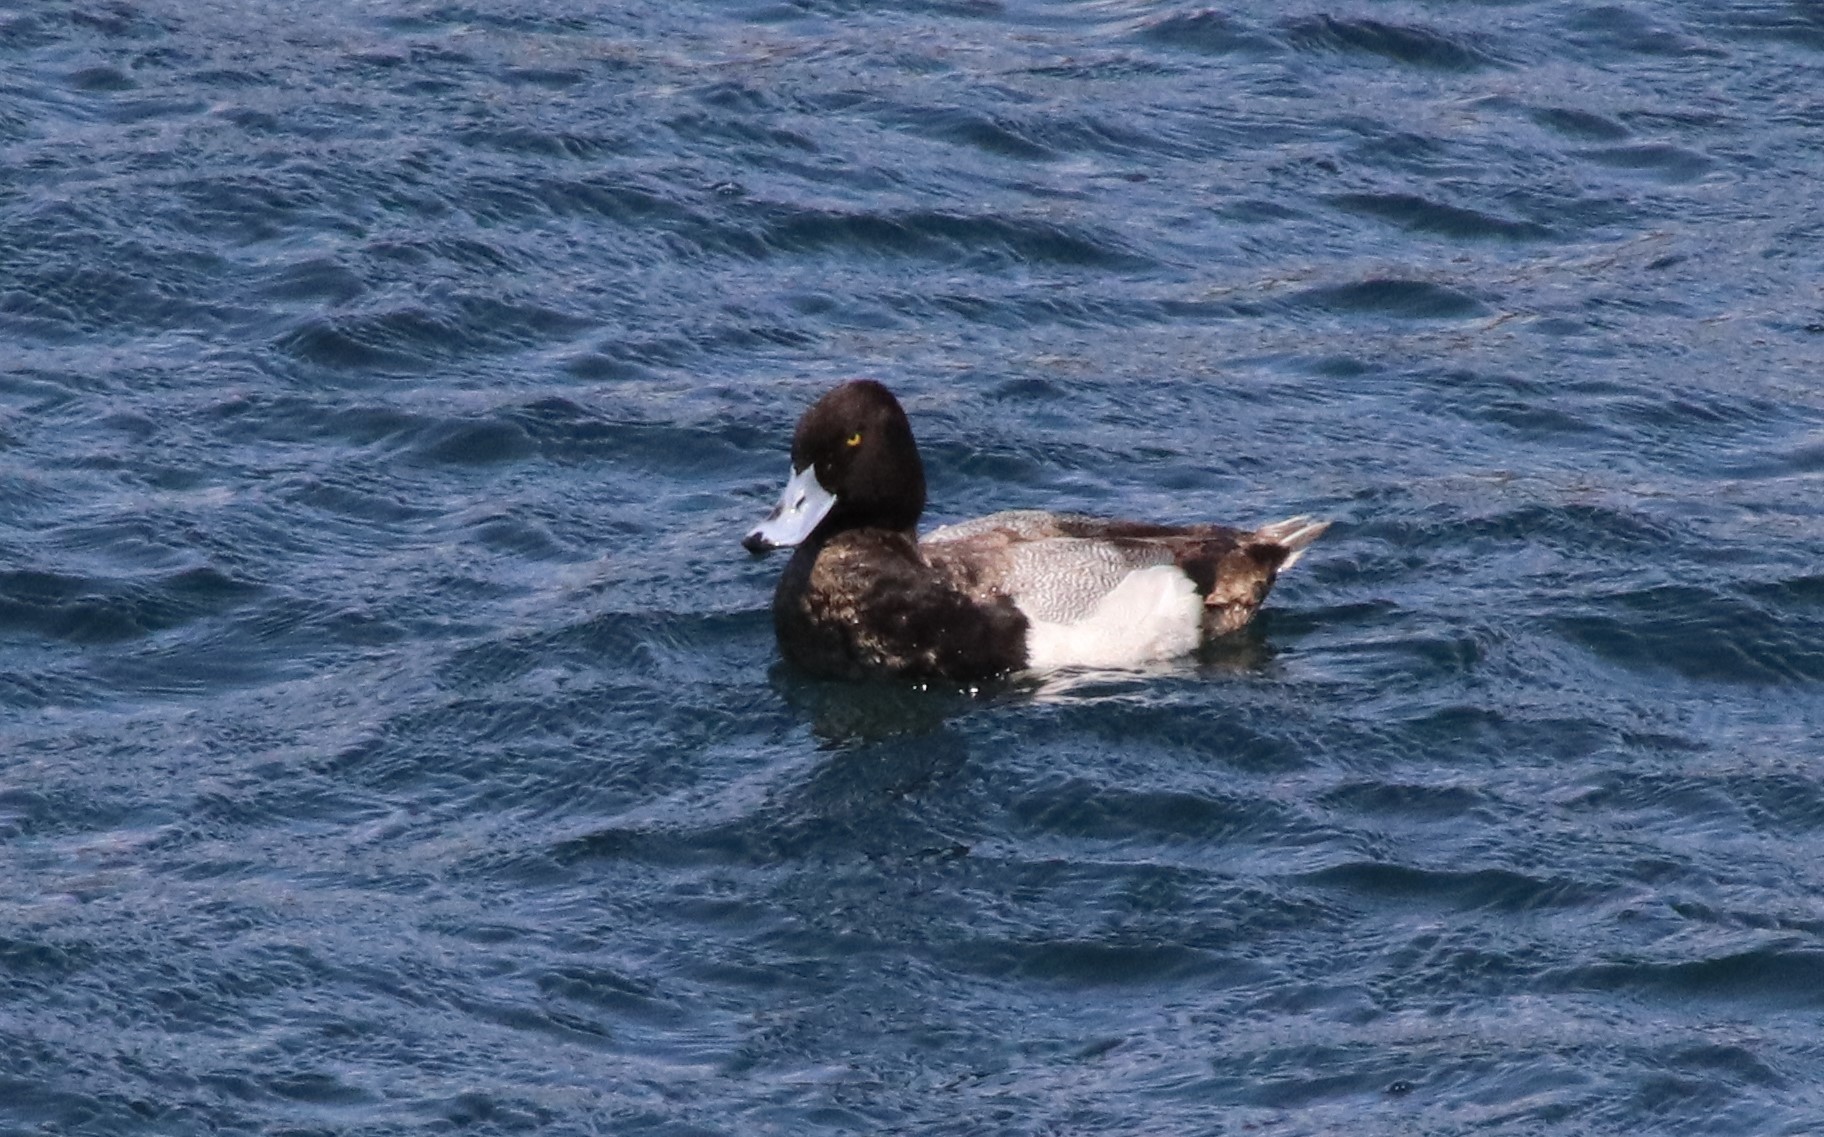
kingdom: Animalia
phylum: Chordata
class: Aves
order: Anseriformes
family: Anatidae
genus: Aythya
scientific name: Aythya affinis
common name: Lesser scaup
